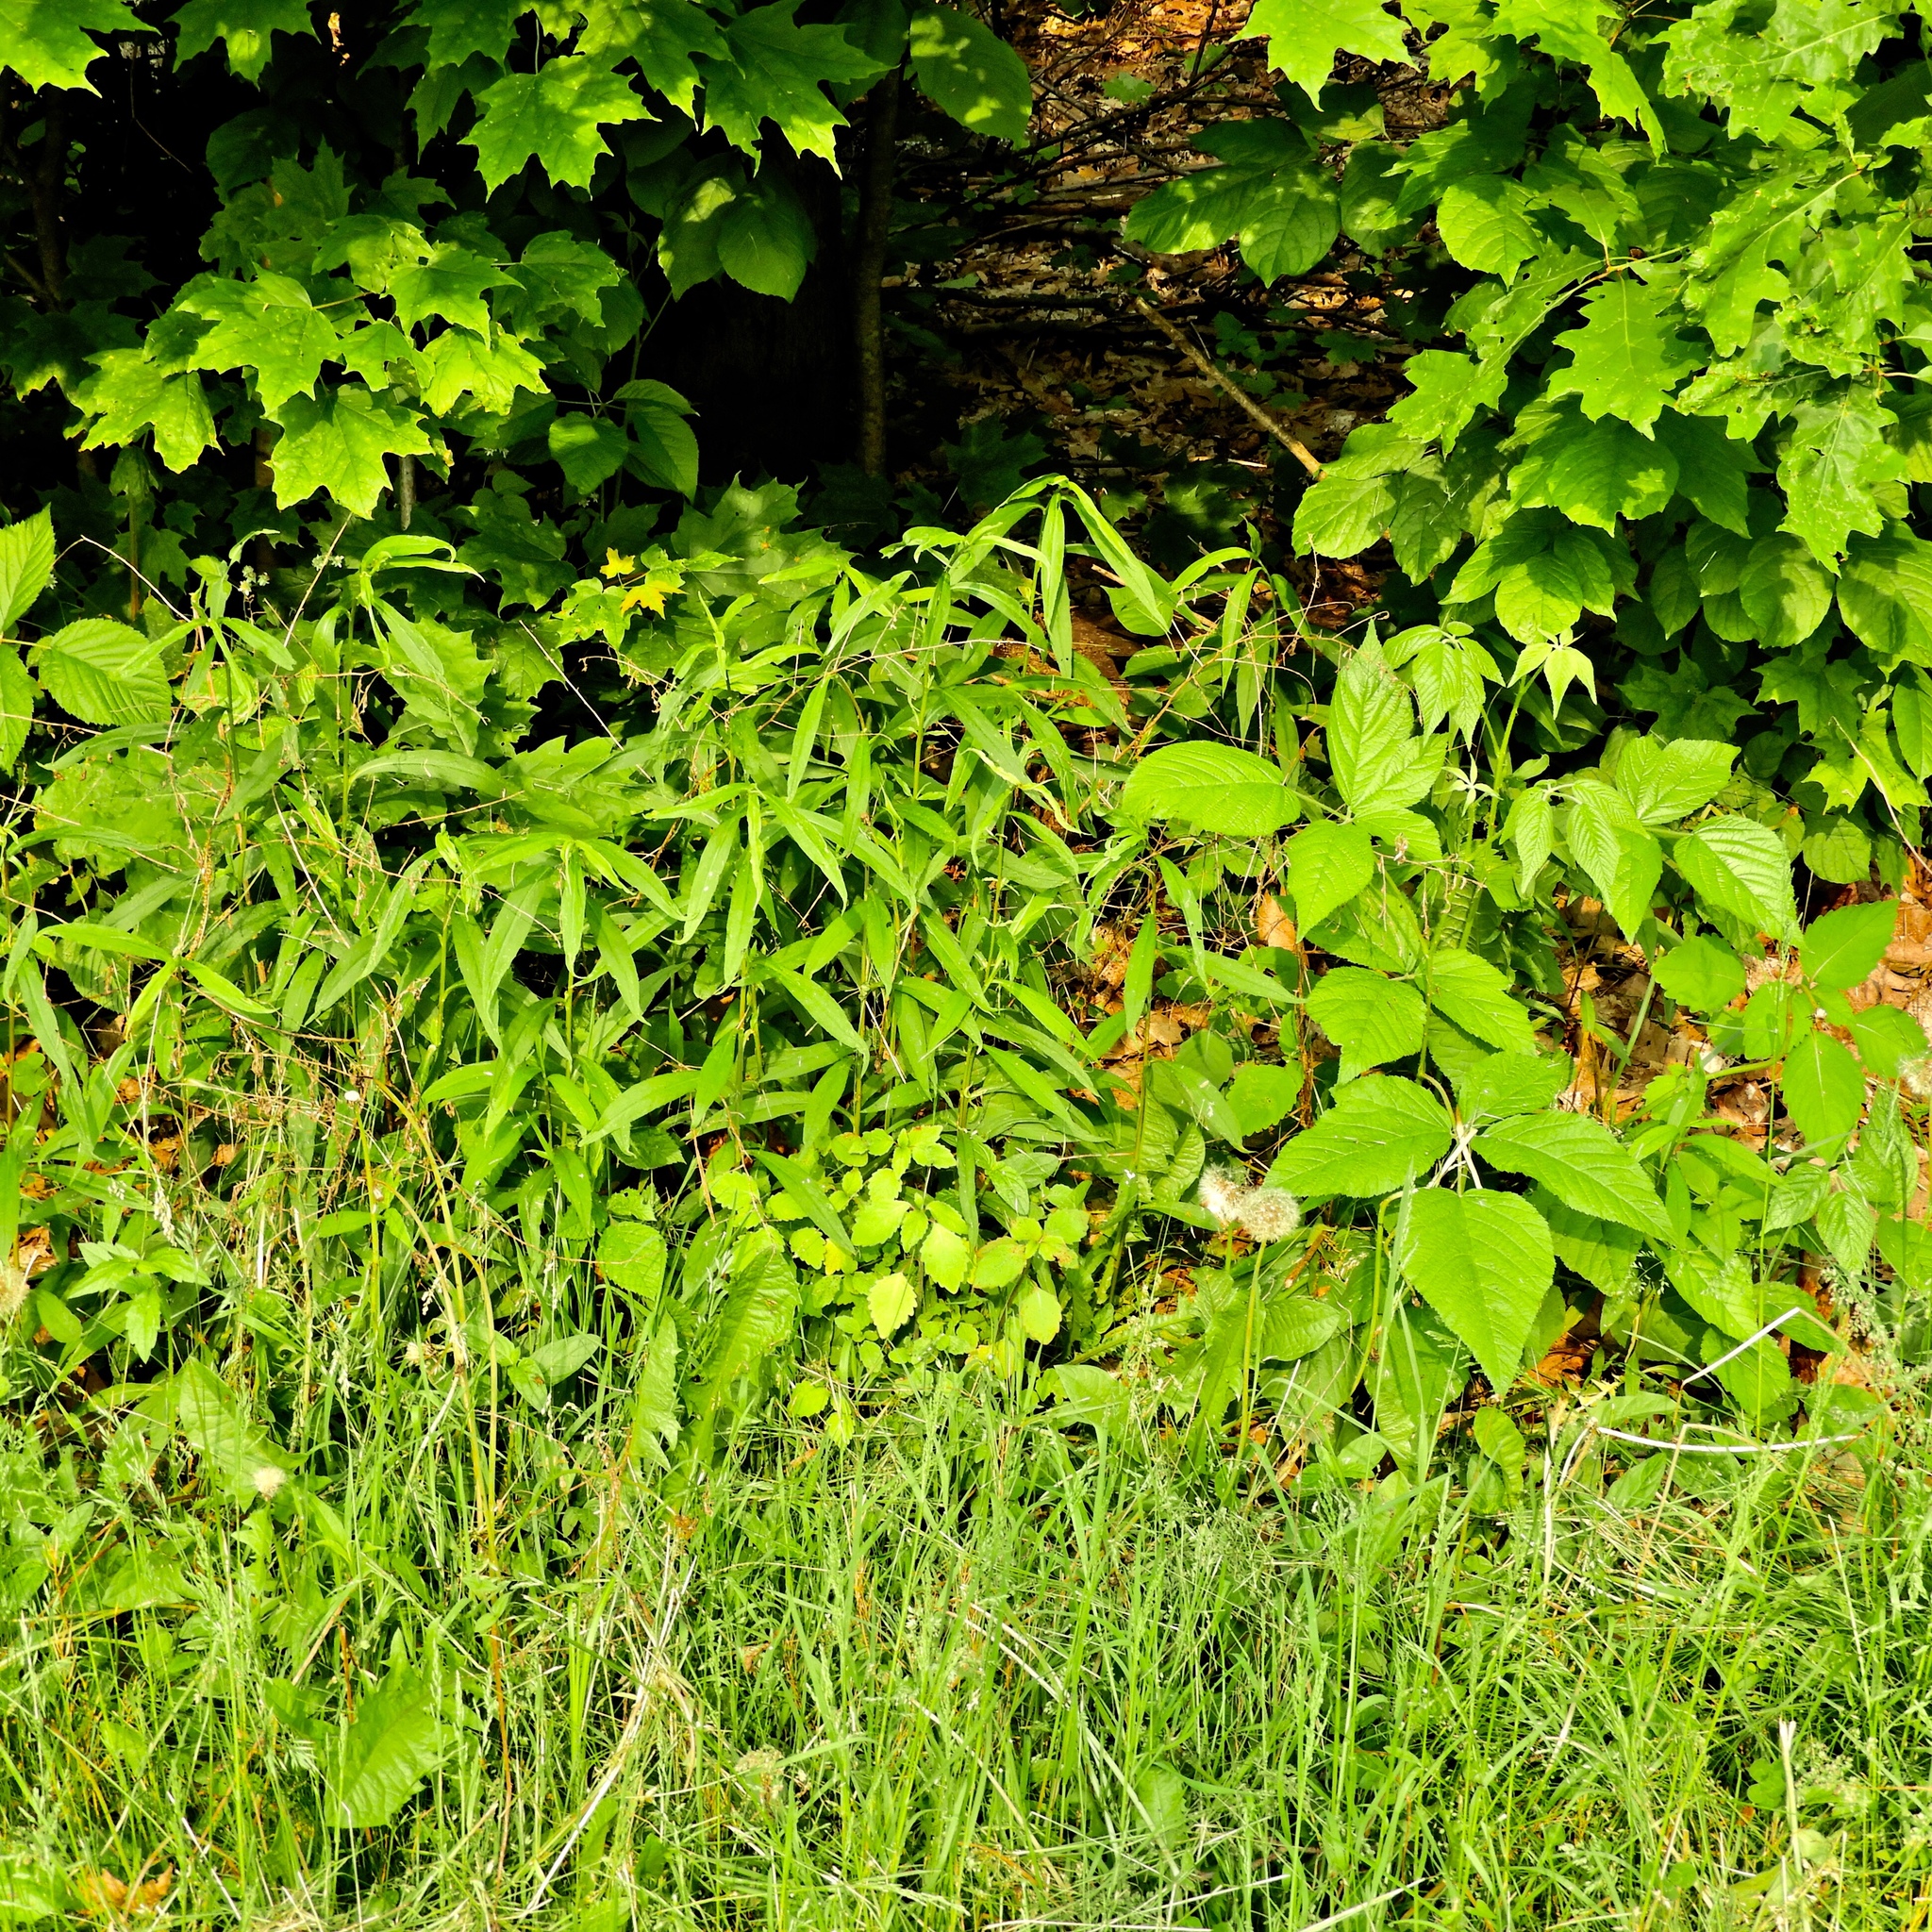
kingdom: Plantae
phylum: Tracheophyta
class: Magnoliopsida
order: Lamiales
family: Lamiaceae
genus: Prunella
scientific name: Prunella vulgaris
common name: Heal-all
